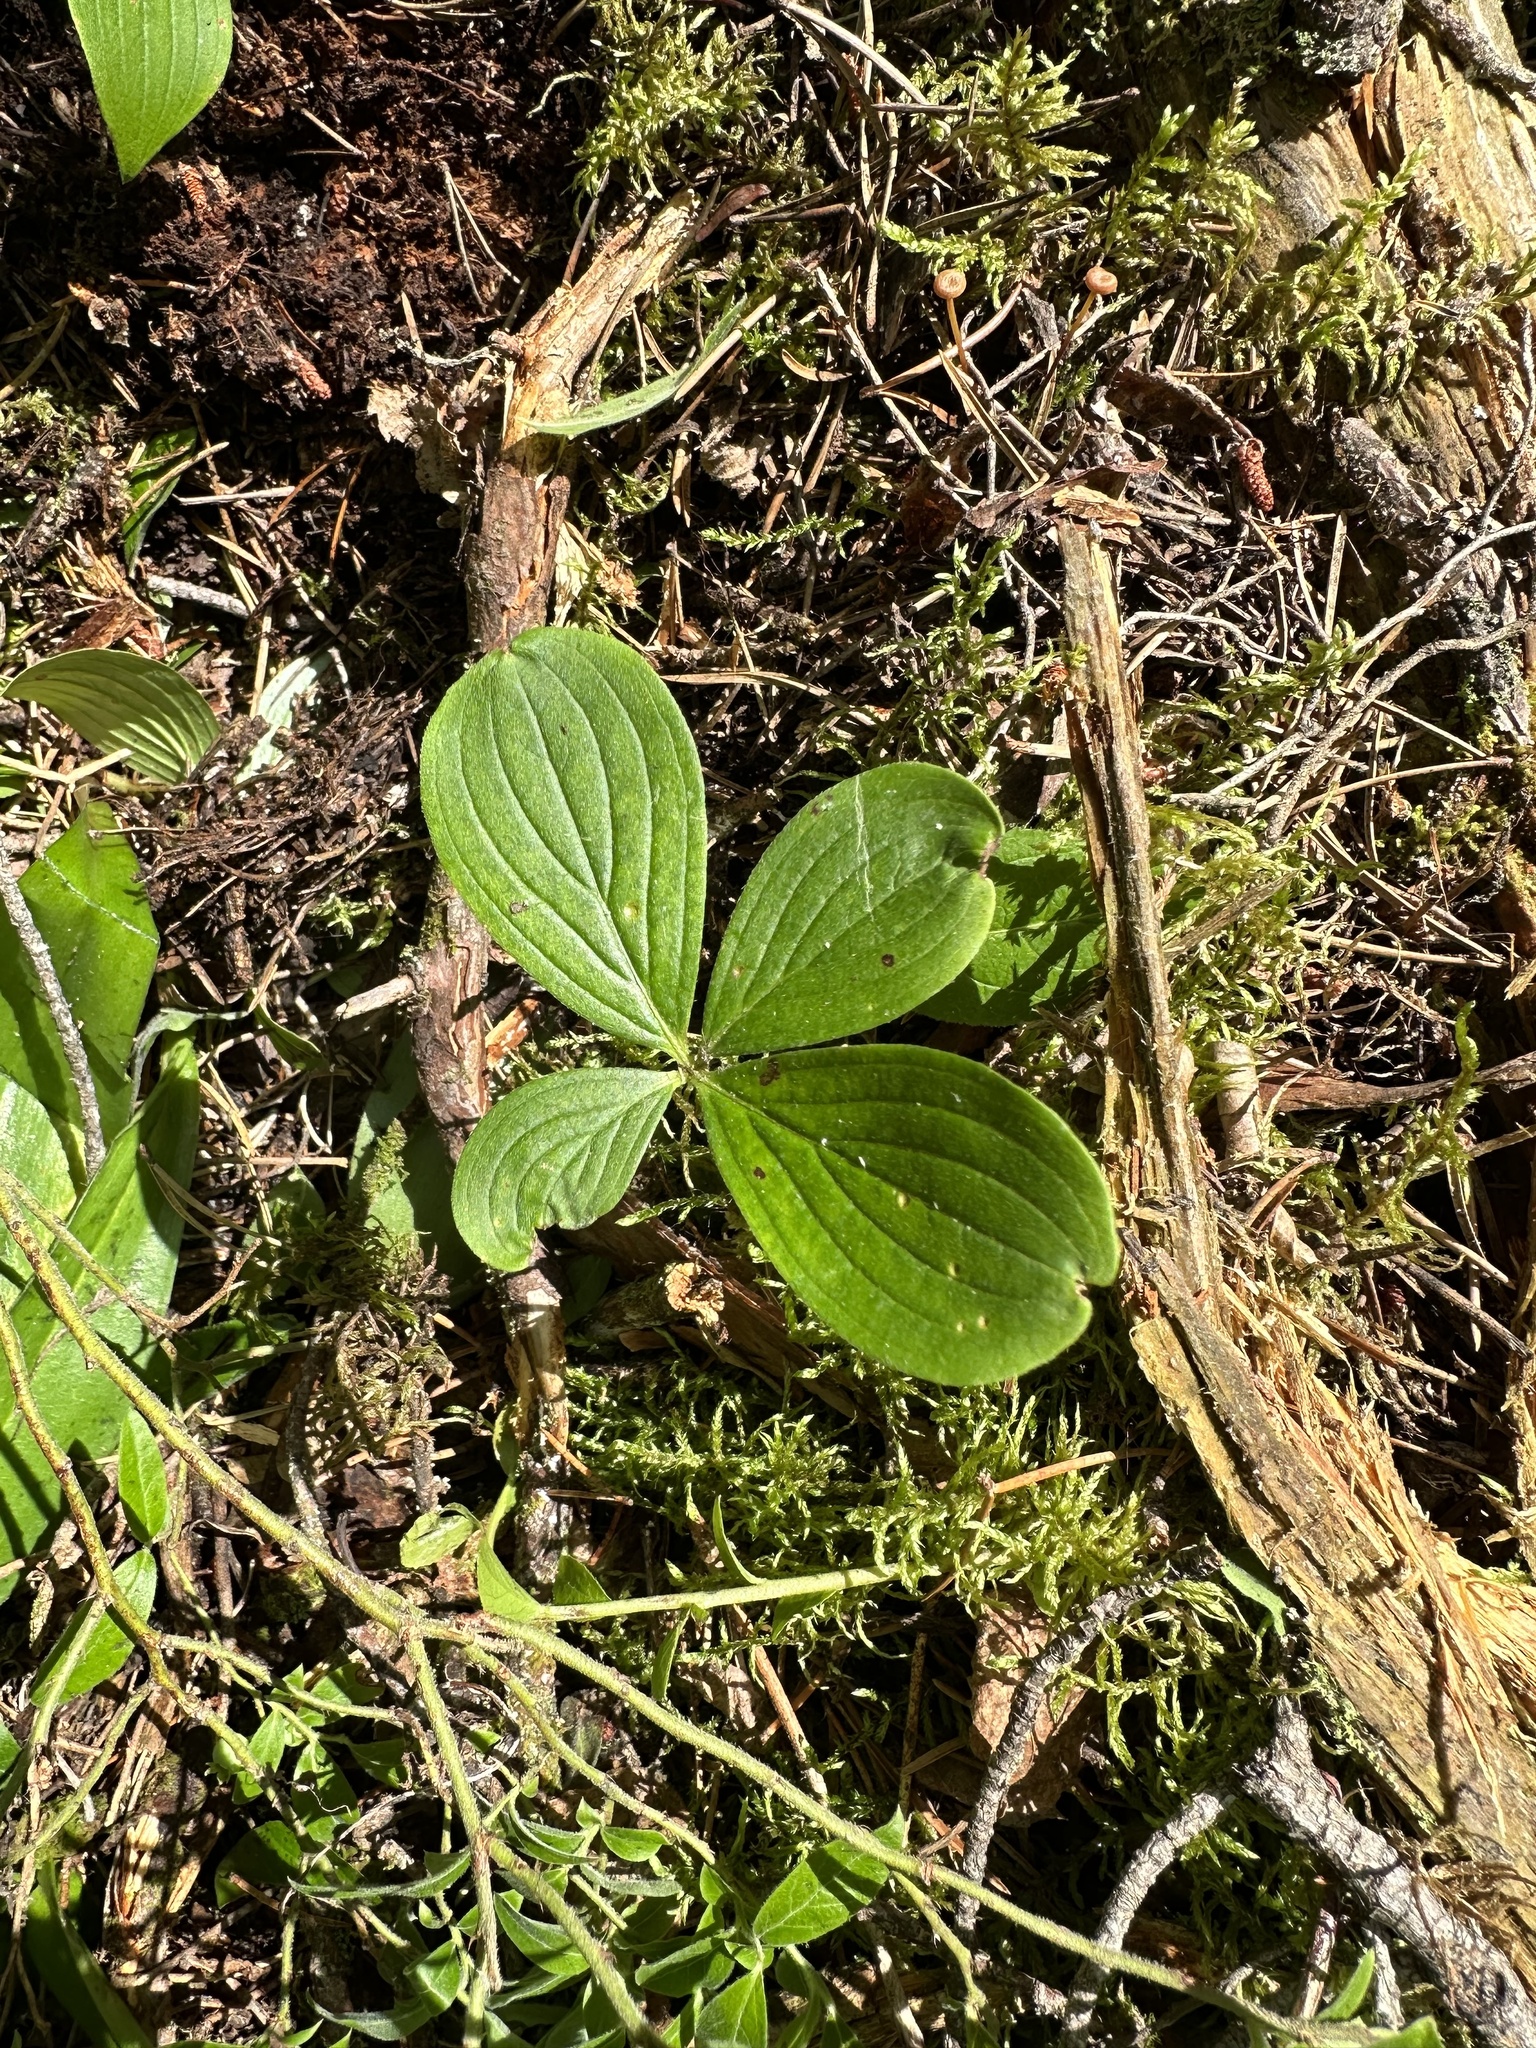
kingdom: Plantae
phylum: Tracheophyta
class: Magnoliopsida
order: Cornales
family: Cornaceae
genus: Cornus
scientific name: Cornus canadensis
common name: Creeping dogwood
